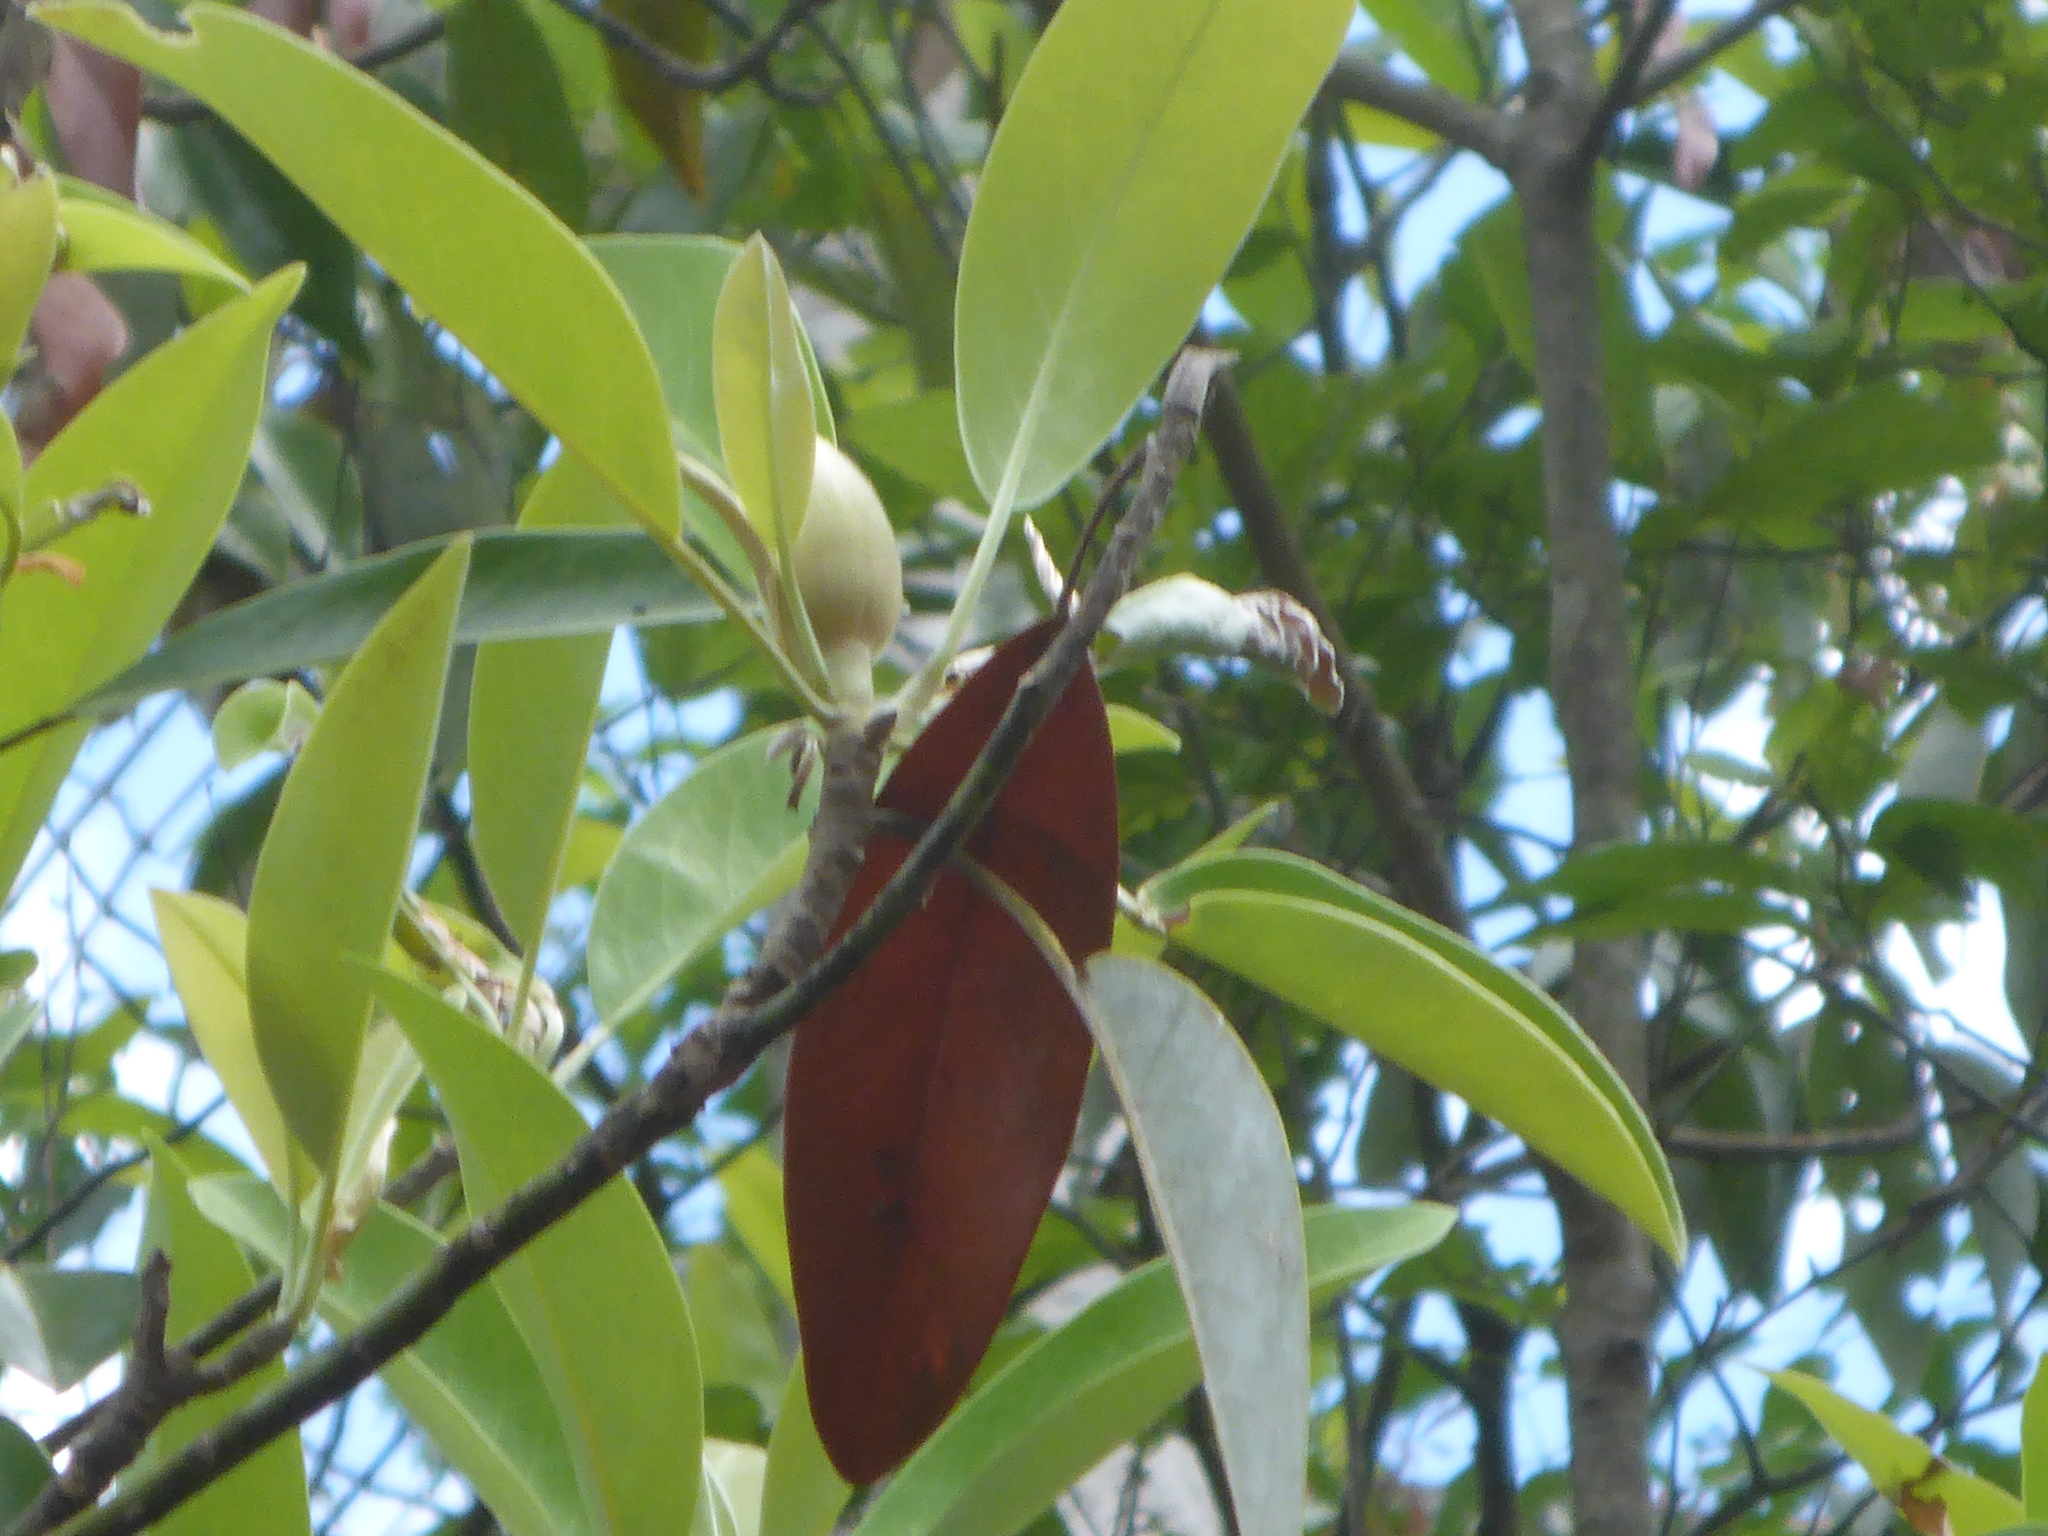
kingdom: Plantae
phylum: Tracheophyta
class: Magnoliopsida
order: Magnoliales
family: Magnoliaceae
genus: Magnolia
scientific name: Magnolia virginiana
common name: Swamp bay
